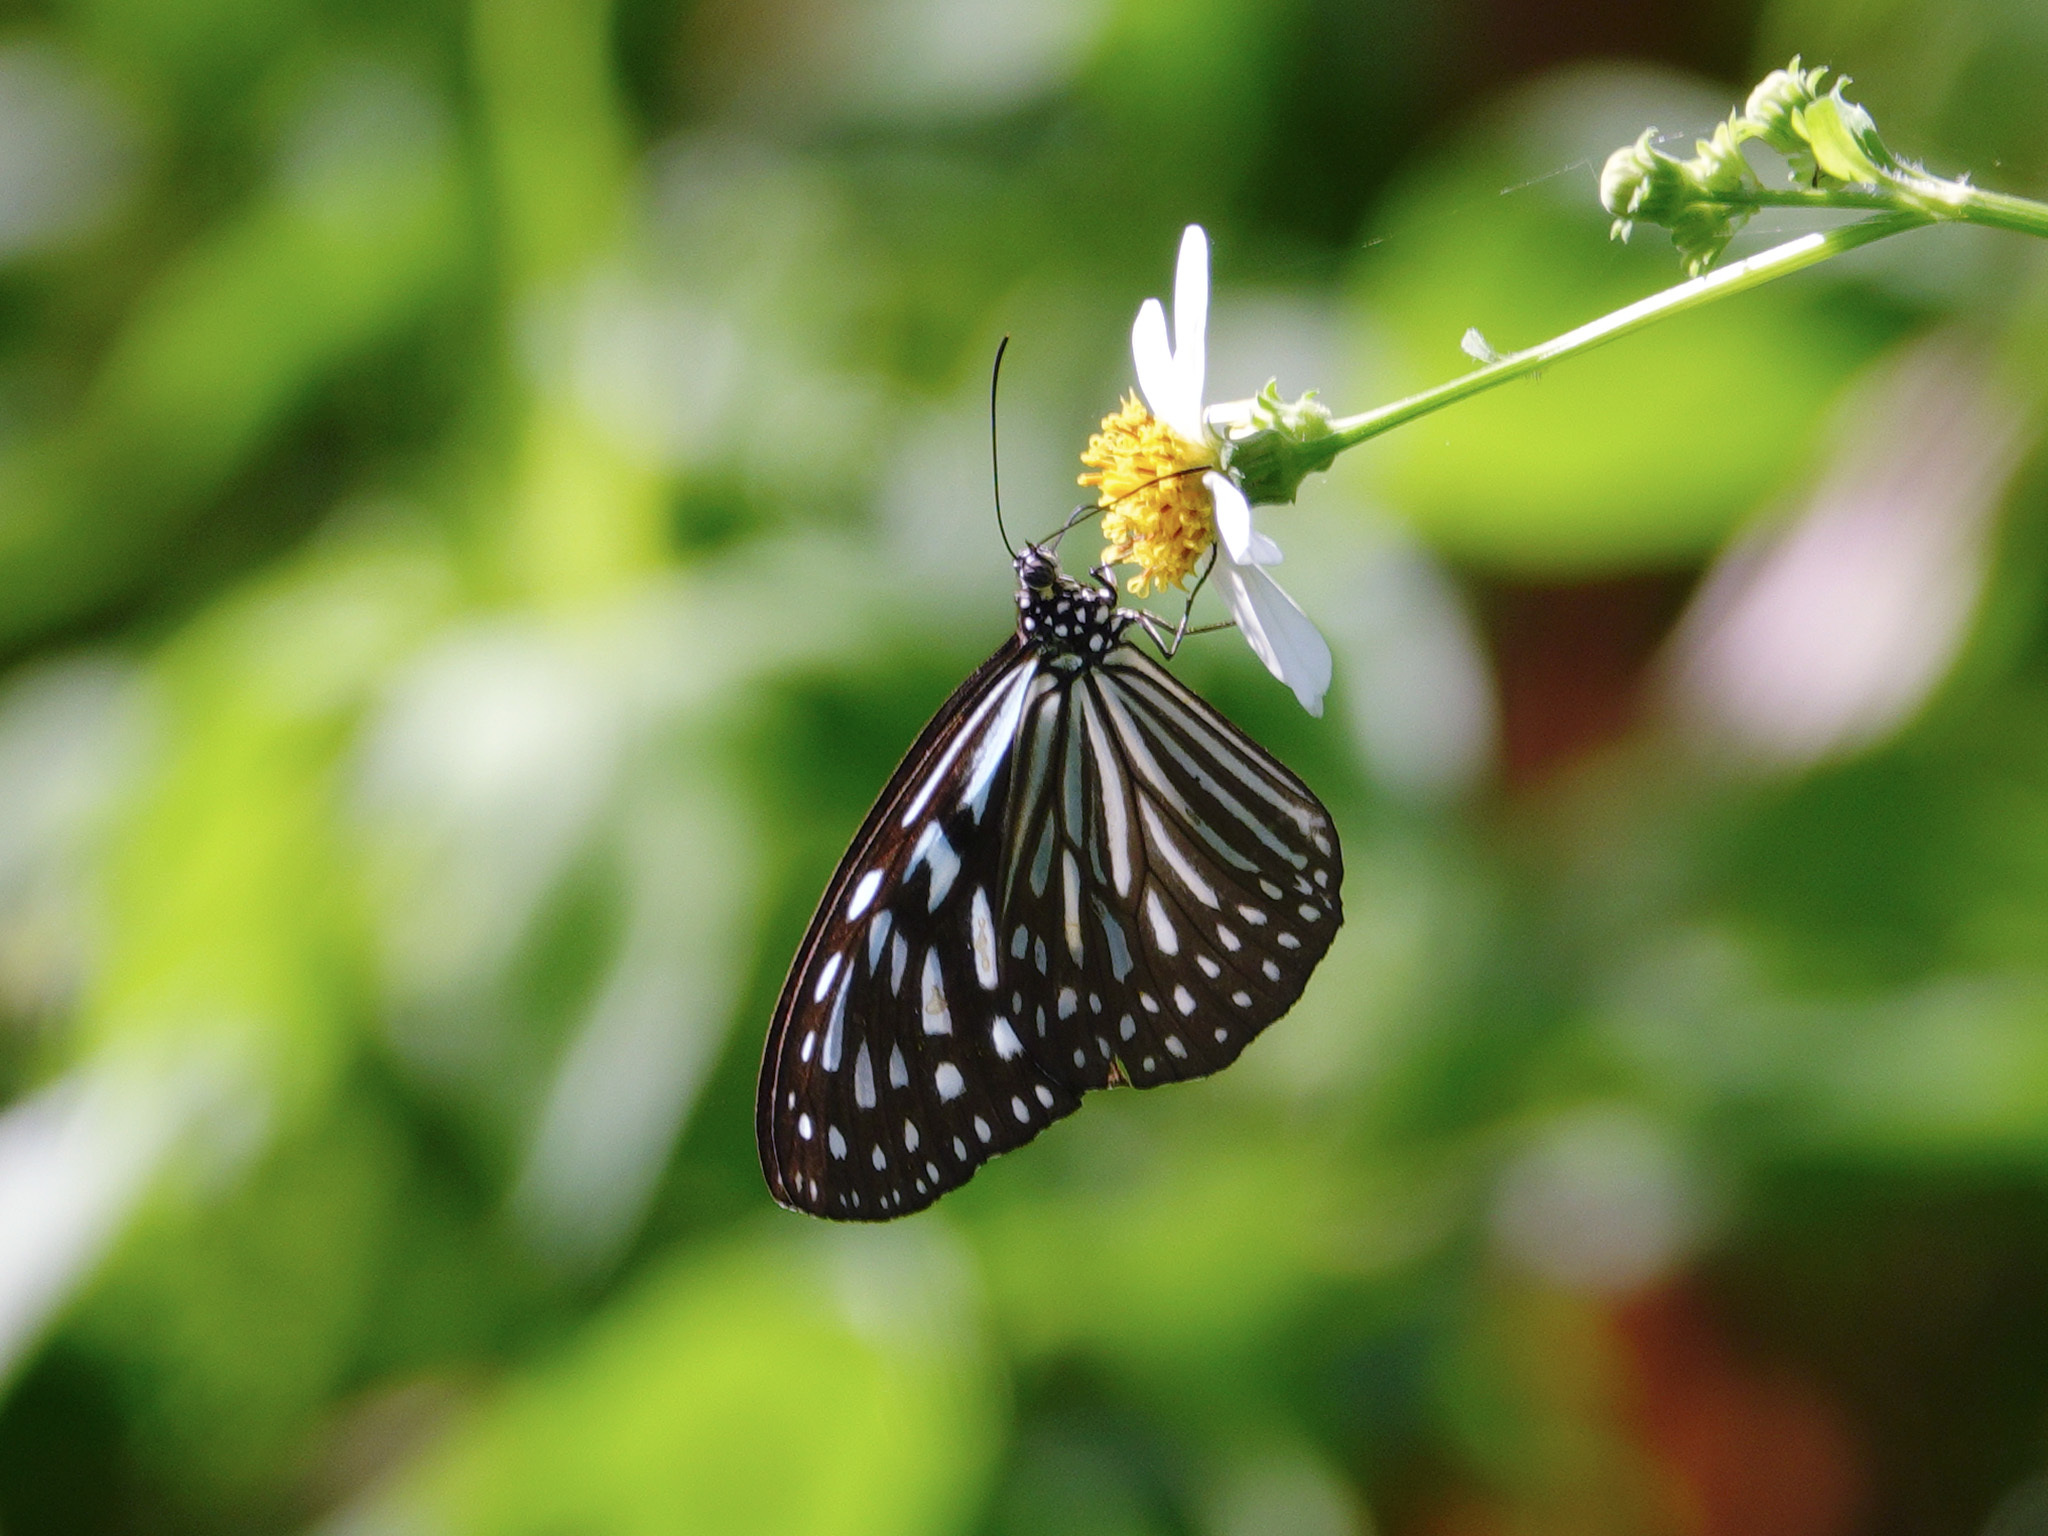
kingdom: Animalia
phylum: Arthropoda
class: Insecta
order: Lepidoptera
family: Nymphalidae
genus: Ideopsis
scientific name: Ideopsis vulgaris
